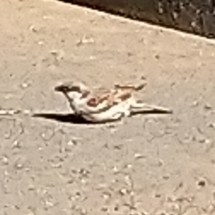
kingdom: Animalia
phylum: Chordata
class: Aves
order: Passeriformes
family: Passeridae
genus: Passer
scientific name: Passer domesticus
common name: House sparrow
